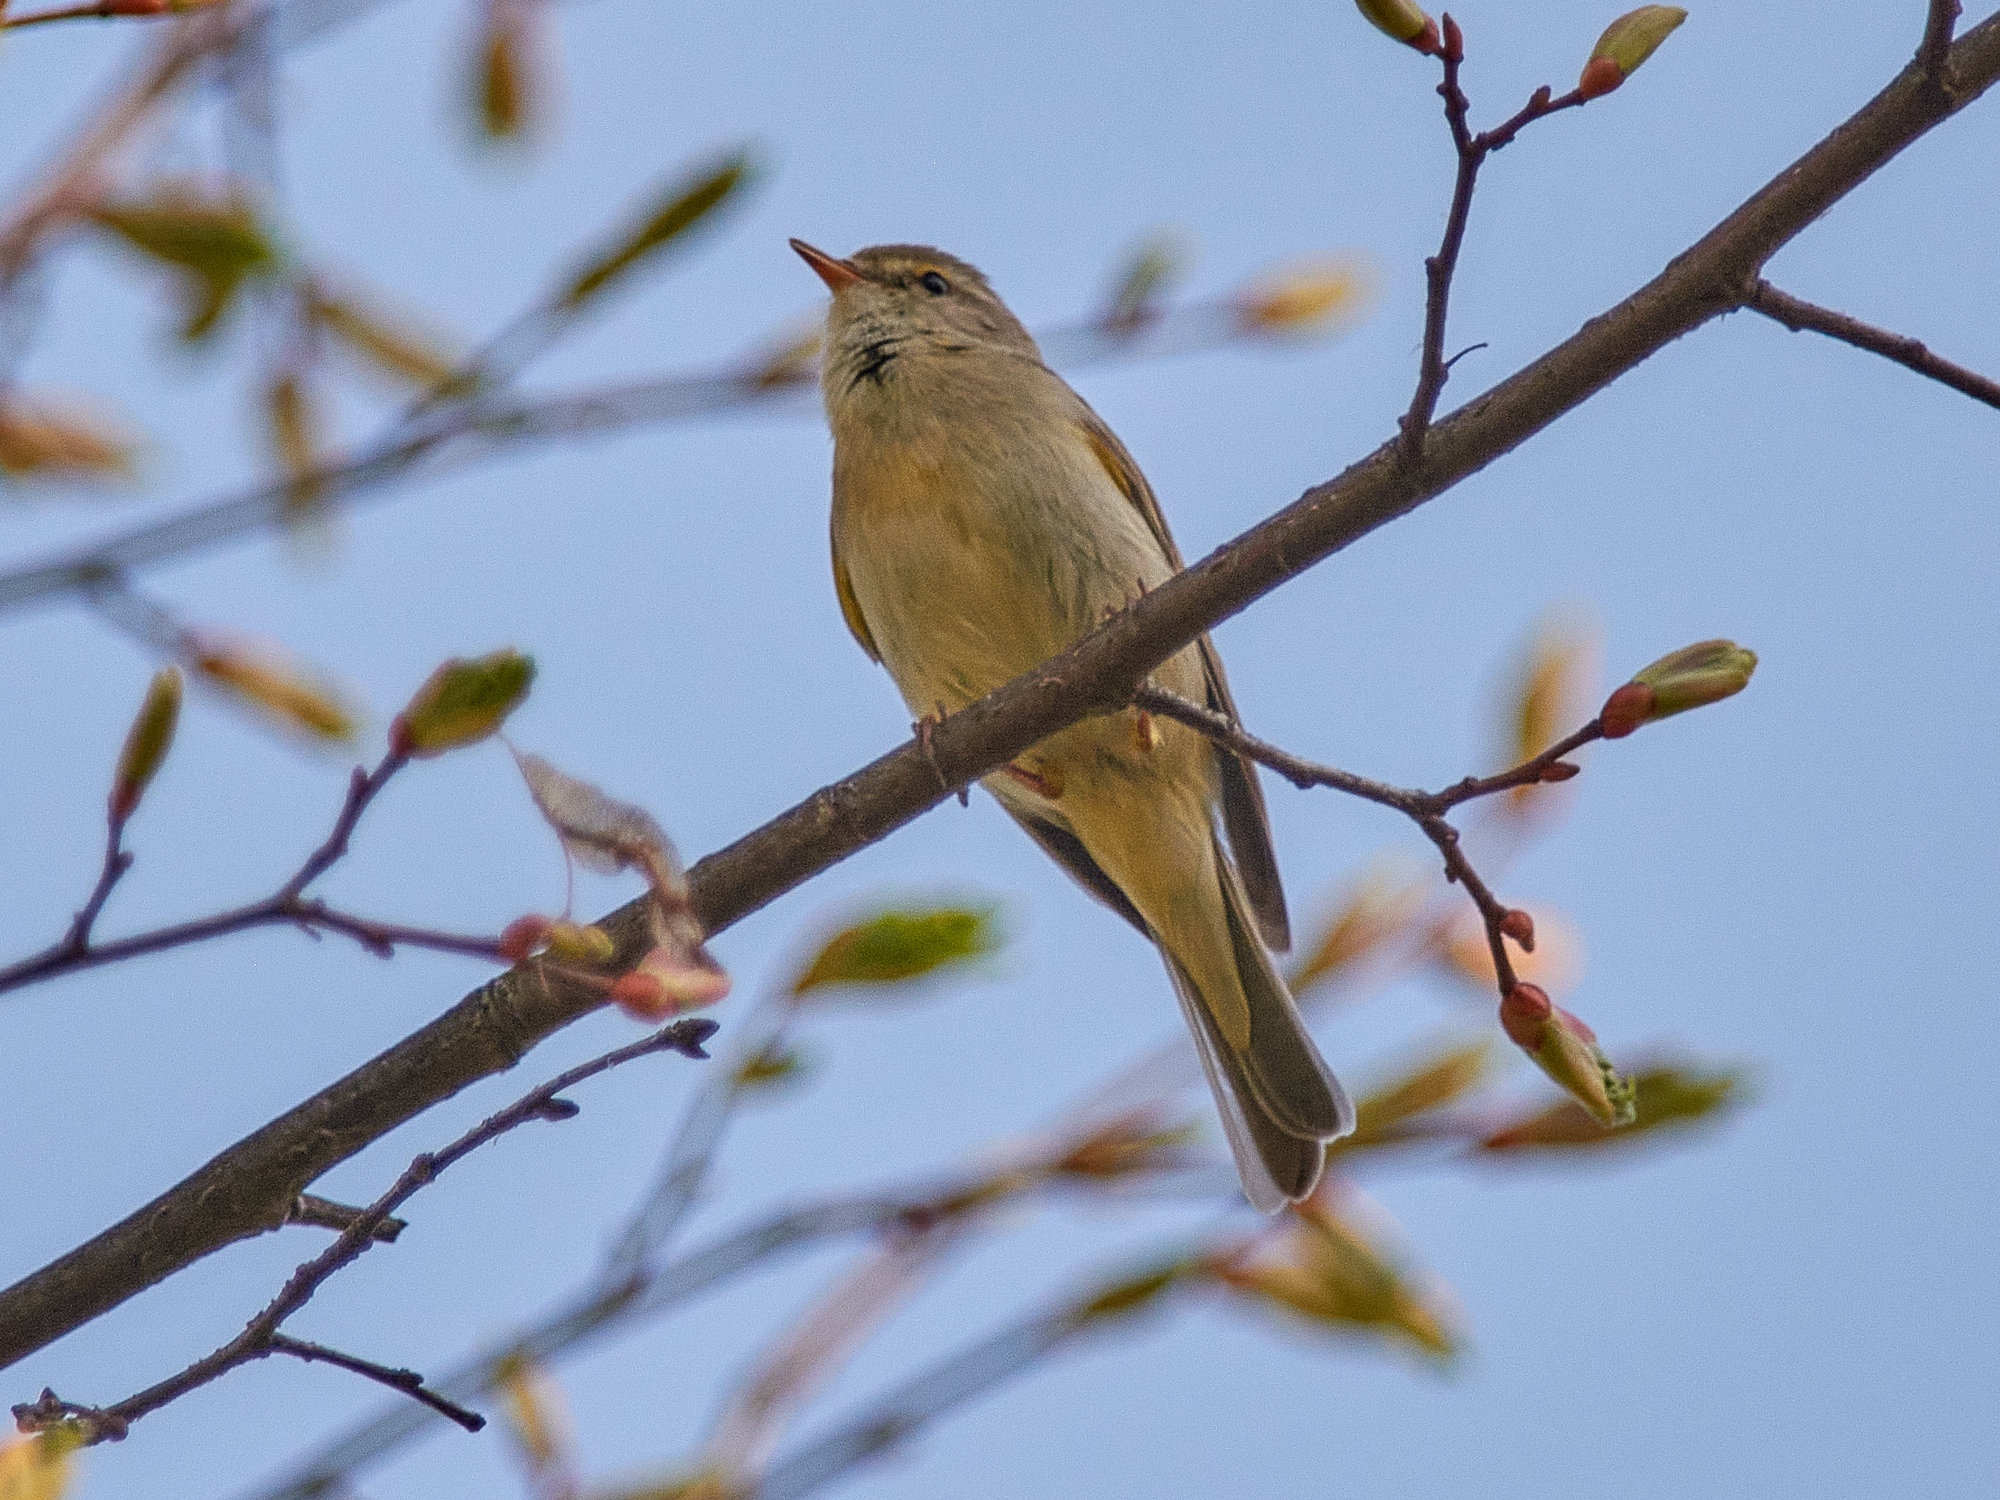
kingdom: Animalia
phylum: Chordata
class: Aves
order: Passeriformes
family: Phylloscopidae
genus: Phylloscopus
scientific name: Phylloscopus trochilus
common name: Willow warbler
